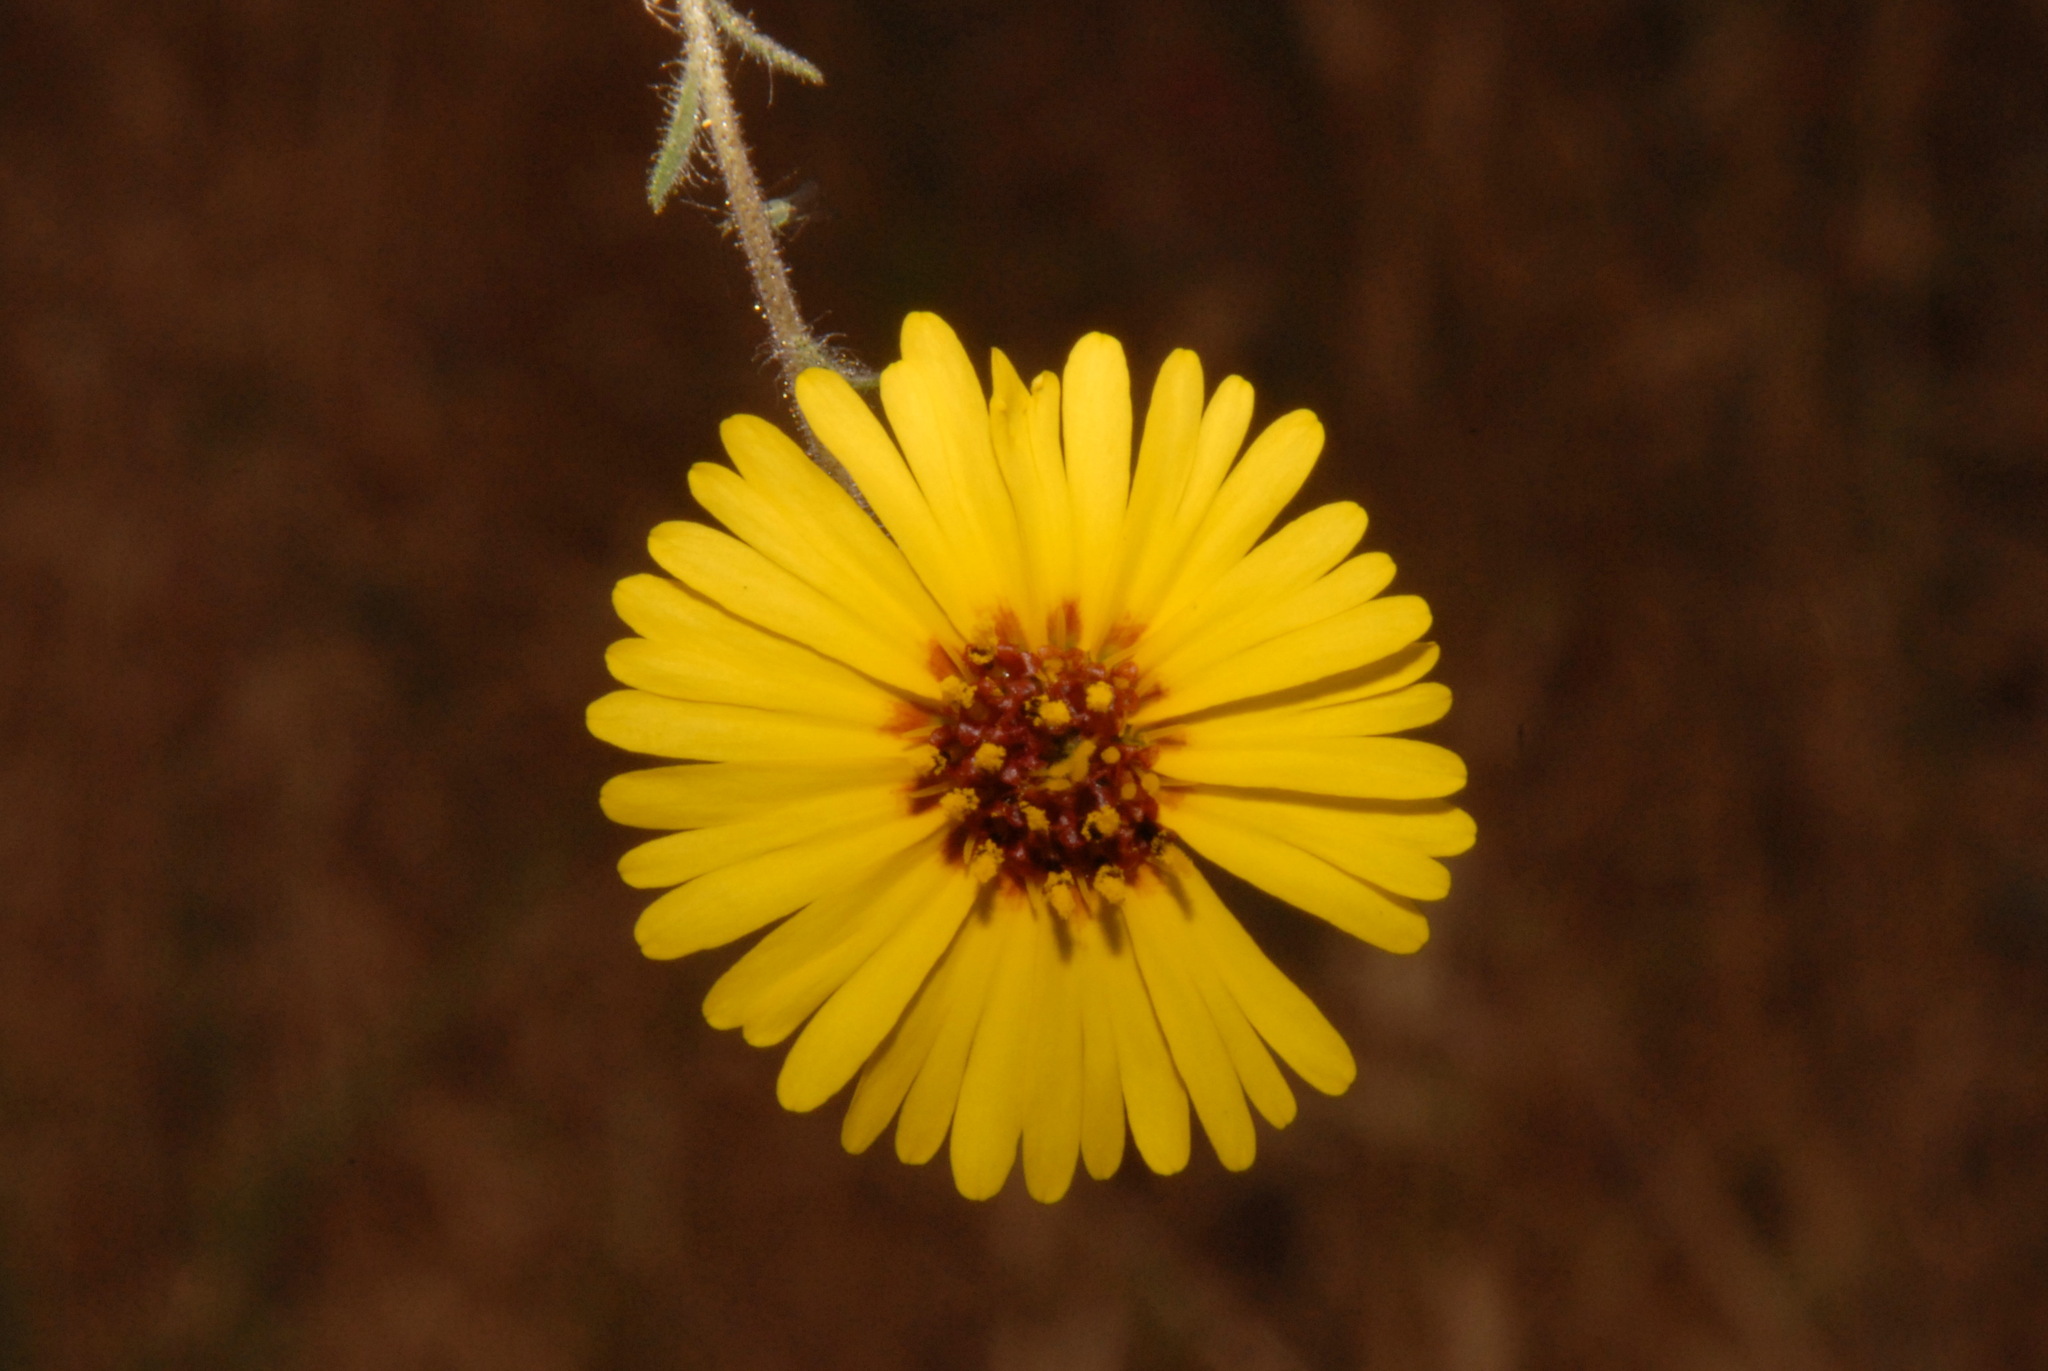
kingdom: Plantae
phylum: Tracheophyta
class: Magnoliopsida
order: Asterales
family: Asteraceae
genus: Madia
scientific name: Madia elegans
